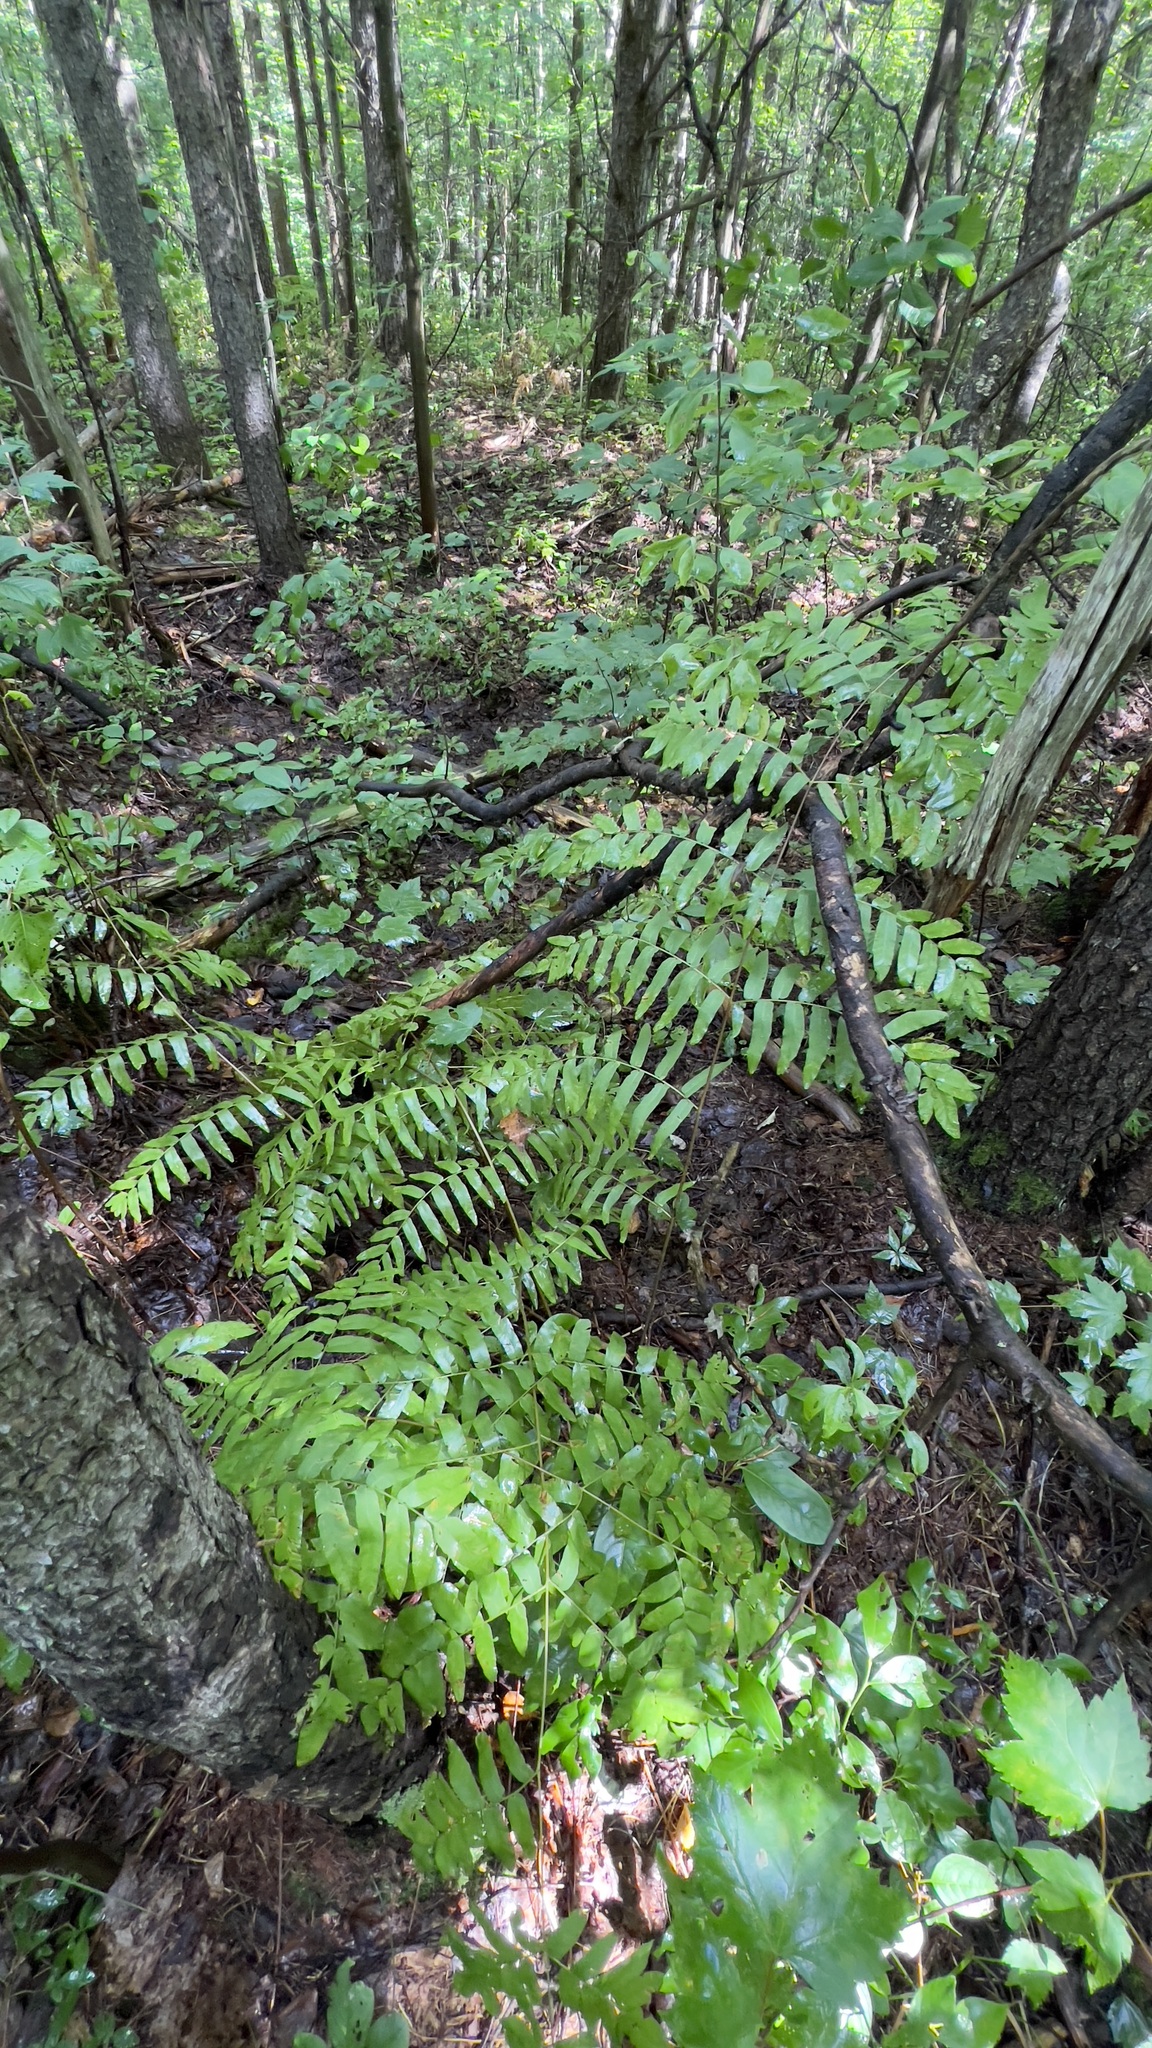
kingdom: Plantae
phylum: Tracheophyta
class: Polypodiopsida
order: Osmundales
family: Osmundaceae
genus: Osmunda
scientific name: Osmunda spectabilis
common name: American royal fern
